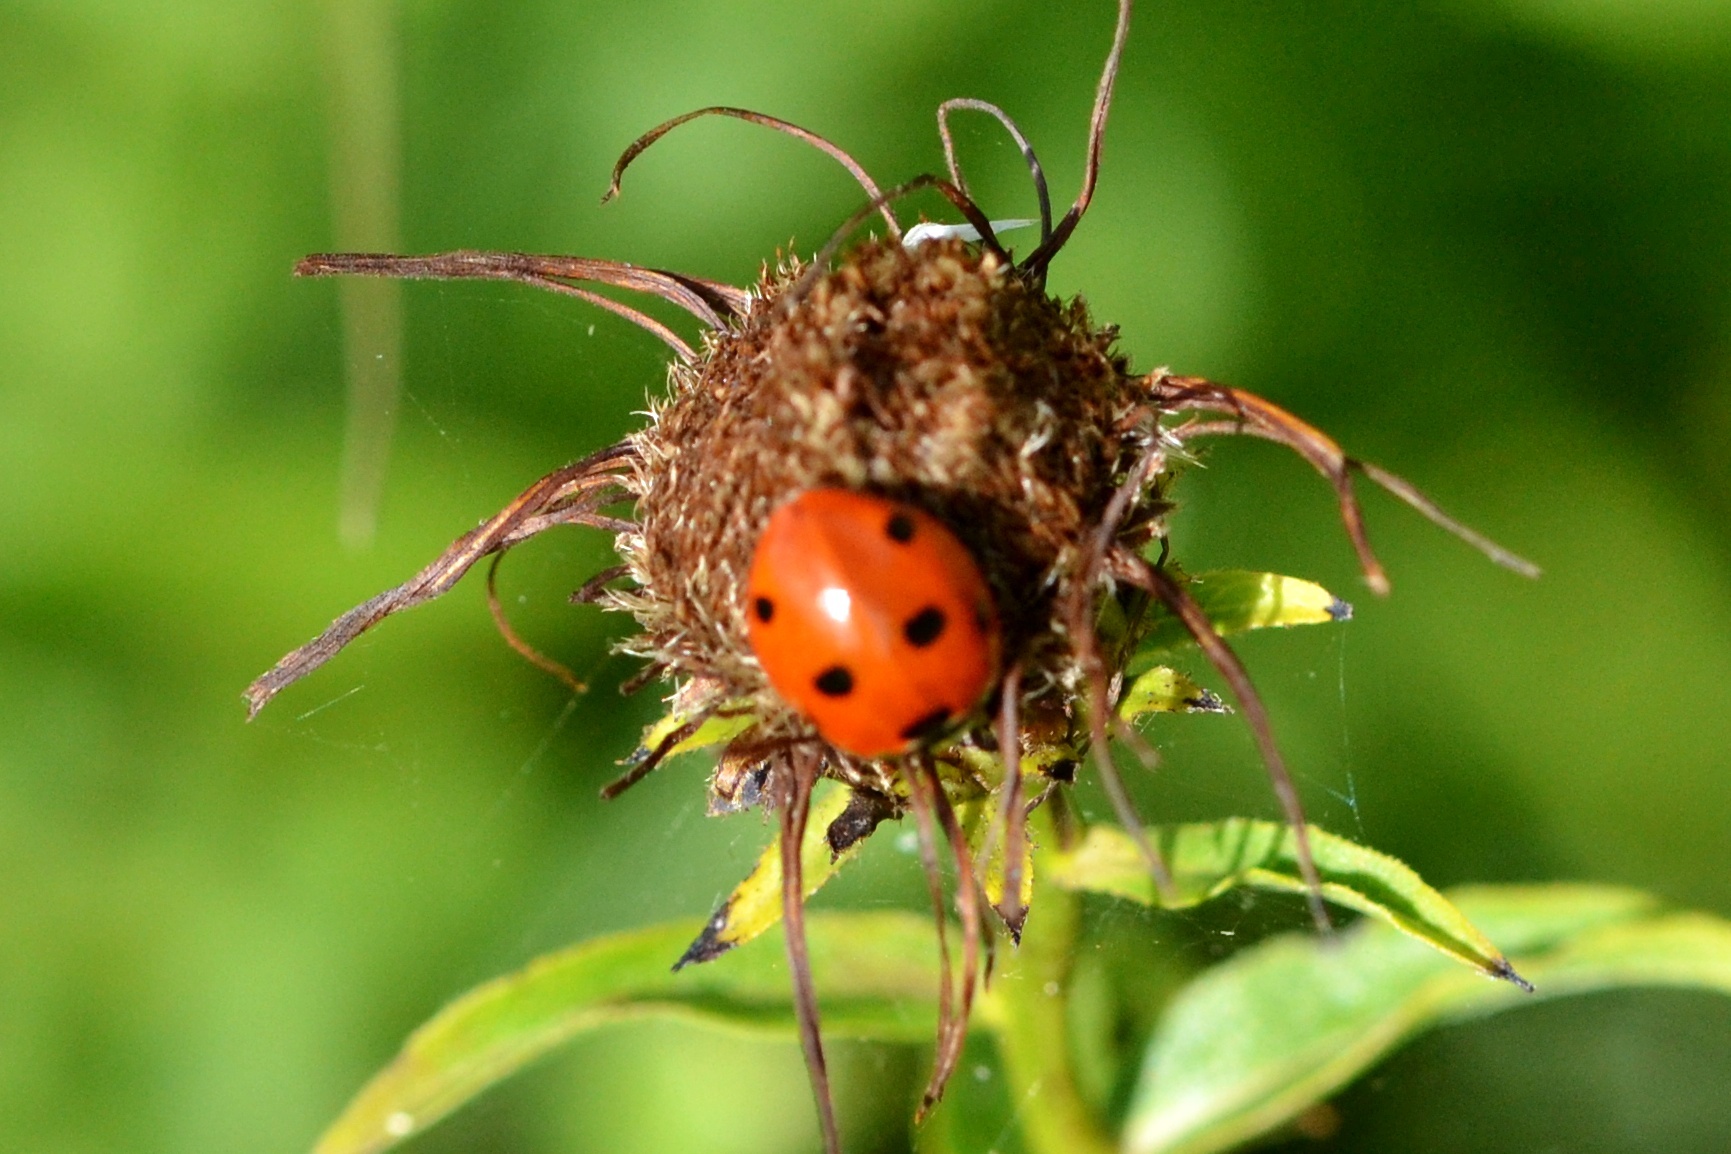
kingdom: Animalia
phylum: Arthropoda
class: Insecta
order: Coleoptera
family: Coccinellidae
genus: Coccinella
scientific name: Coccinella septempunctata
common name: Sevenspotted lady beetle
